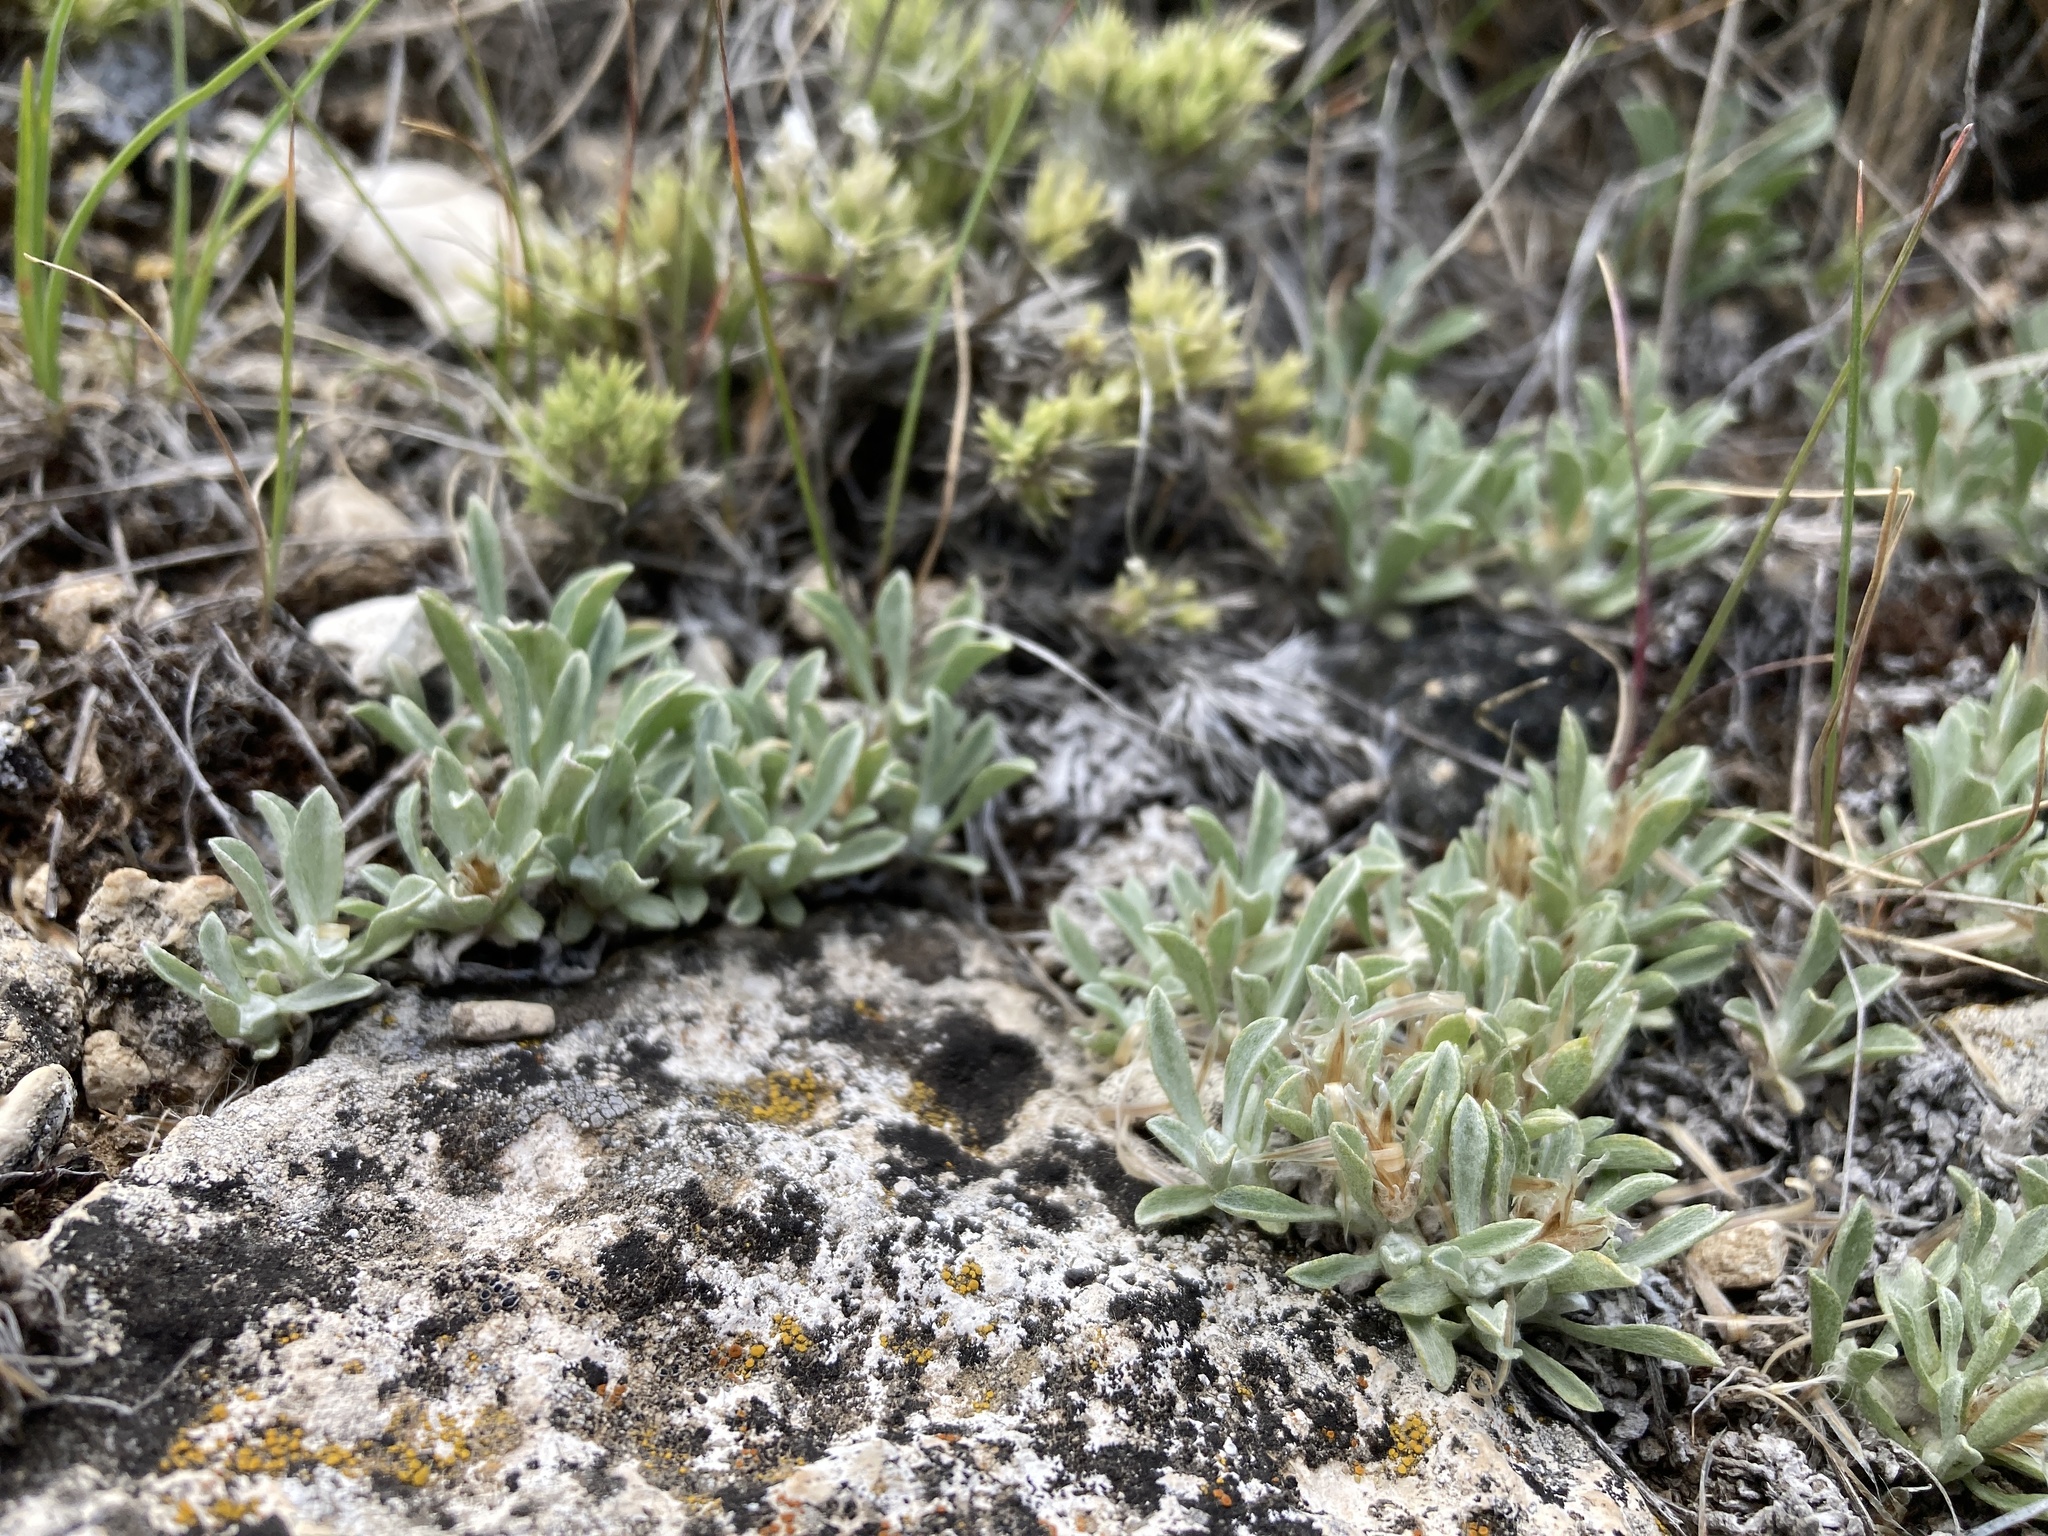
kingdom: Plantae
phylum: Tracheophyta
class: Magnoliopsida
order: Asterales
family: Asteraceae
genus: Antennaria
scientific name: Antennaria dimorpha
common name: Cushion pussytoes
